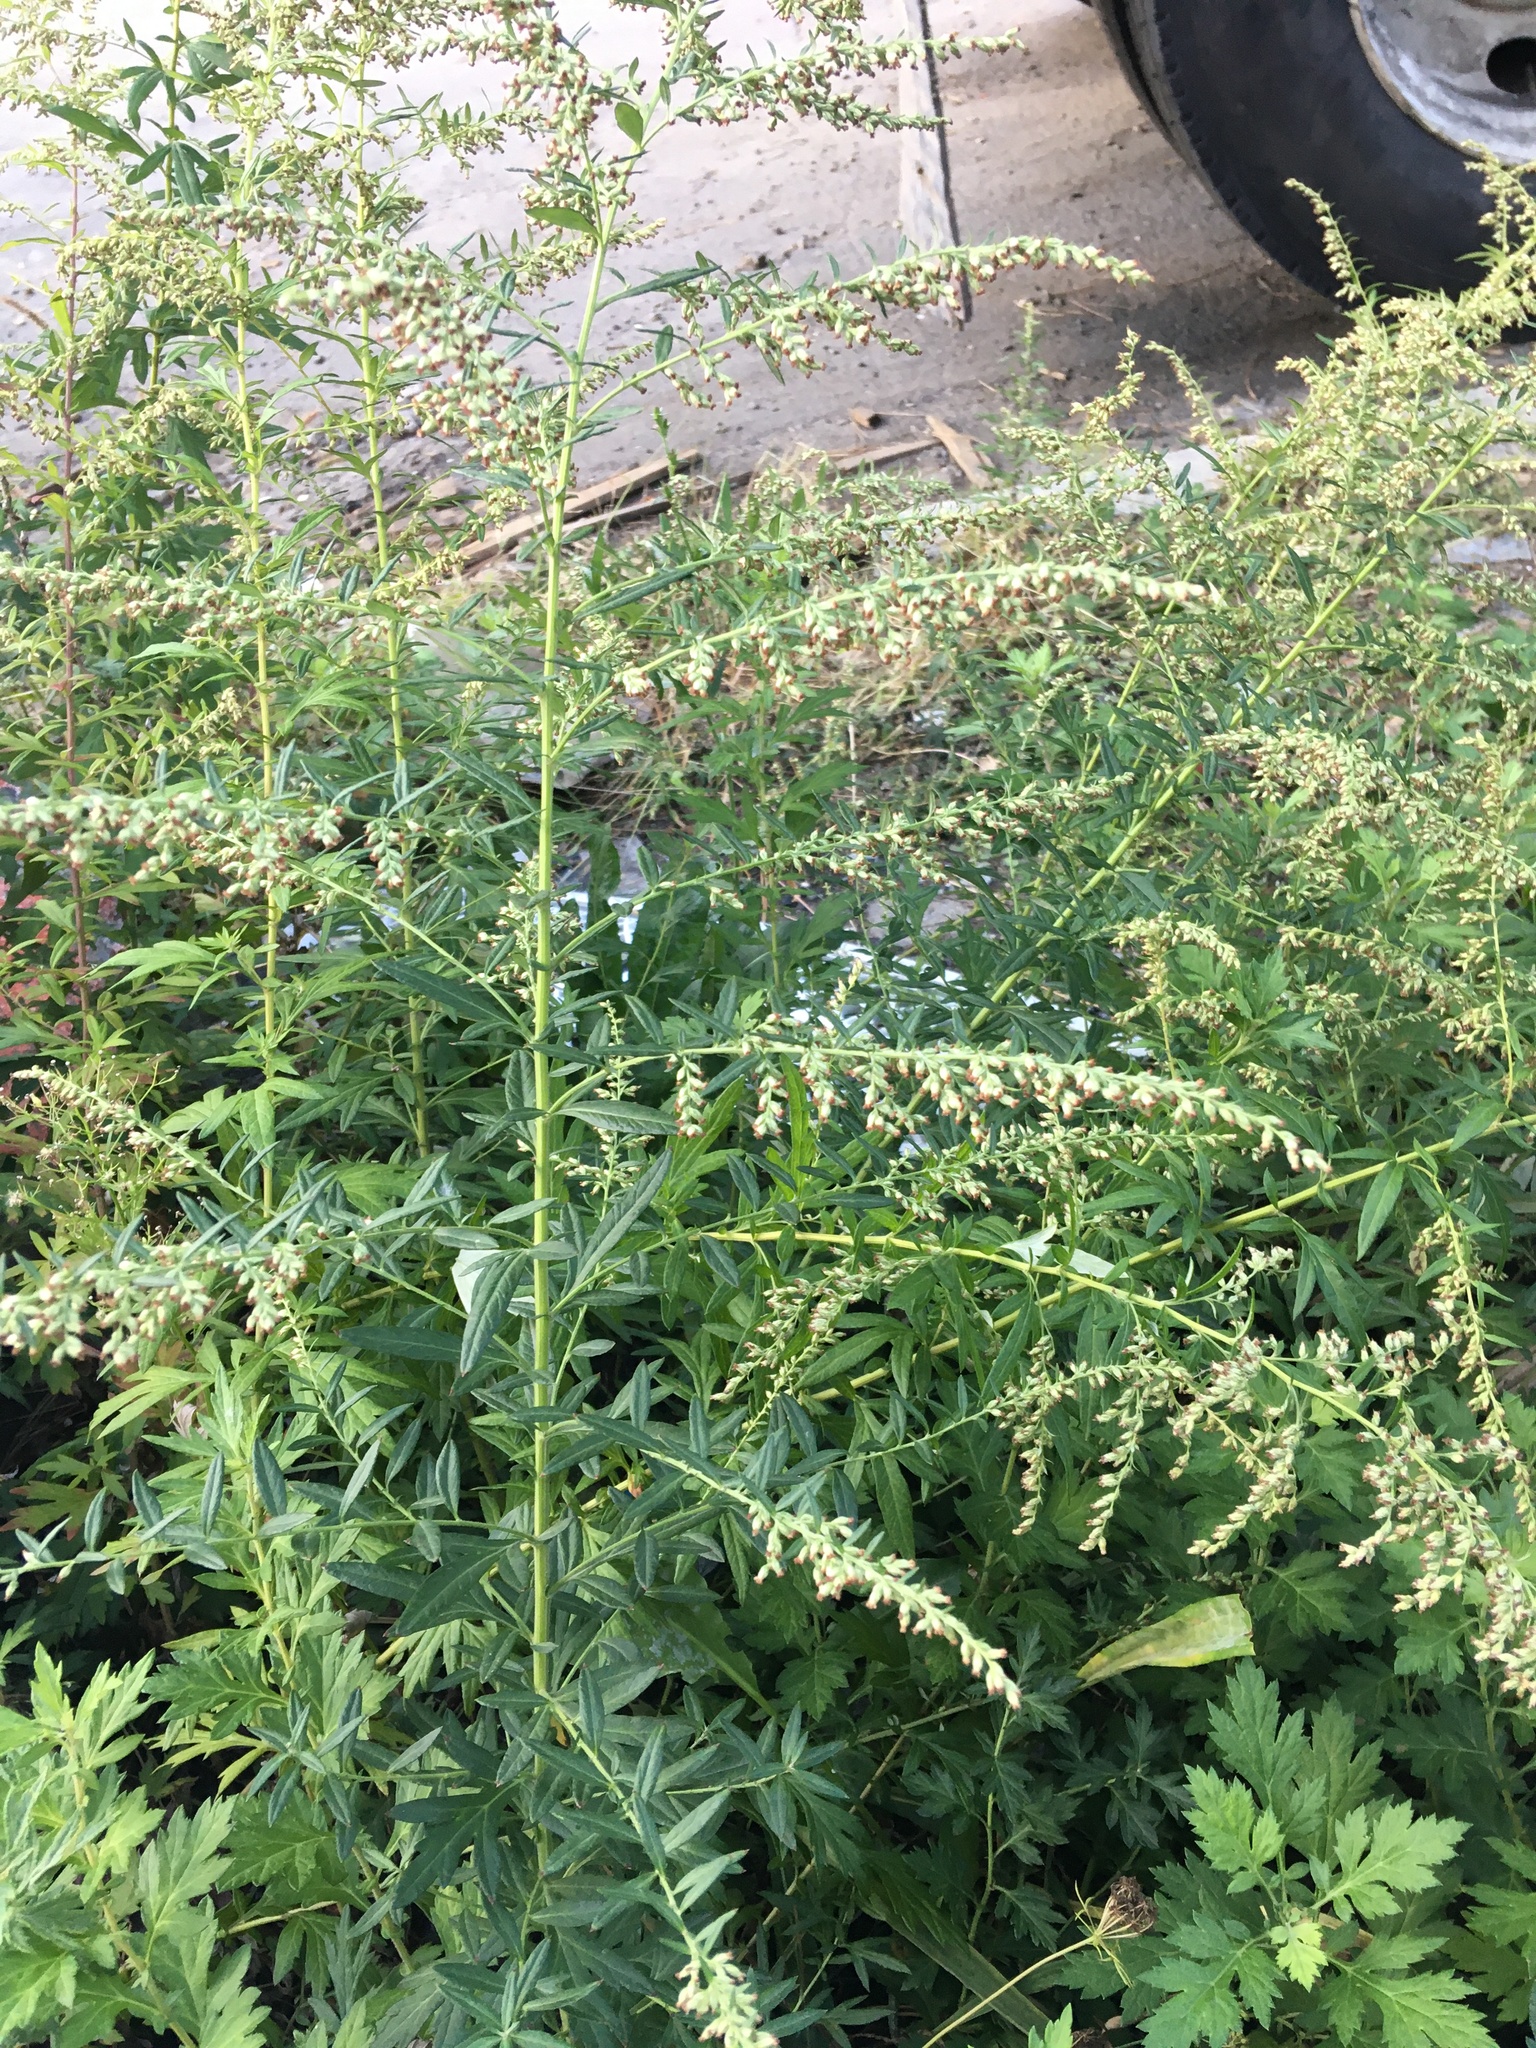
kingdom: Plantae
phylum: Tracheophyta
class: Magnoliopsida
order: Asterales
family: Asteraceae
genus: Artemisia
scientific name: Artemisia vulgaris
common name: Mugwort
